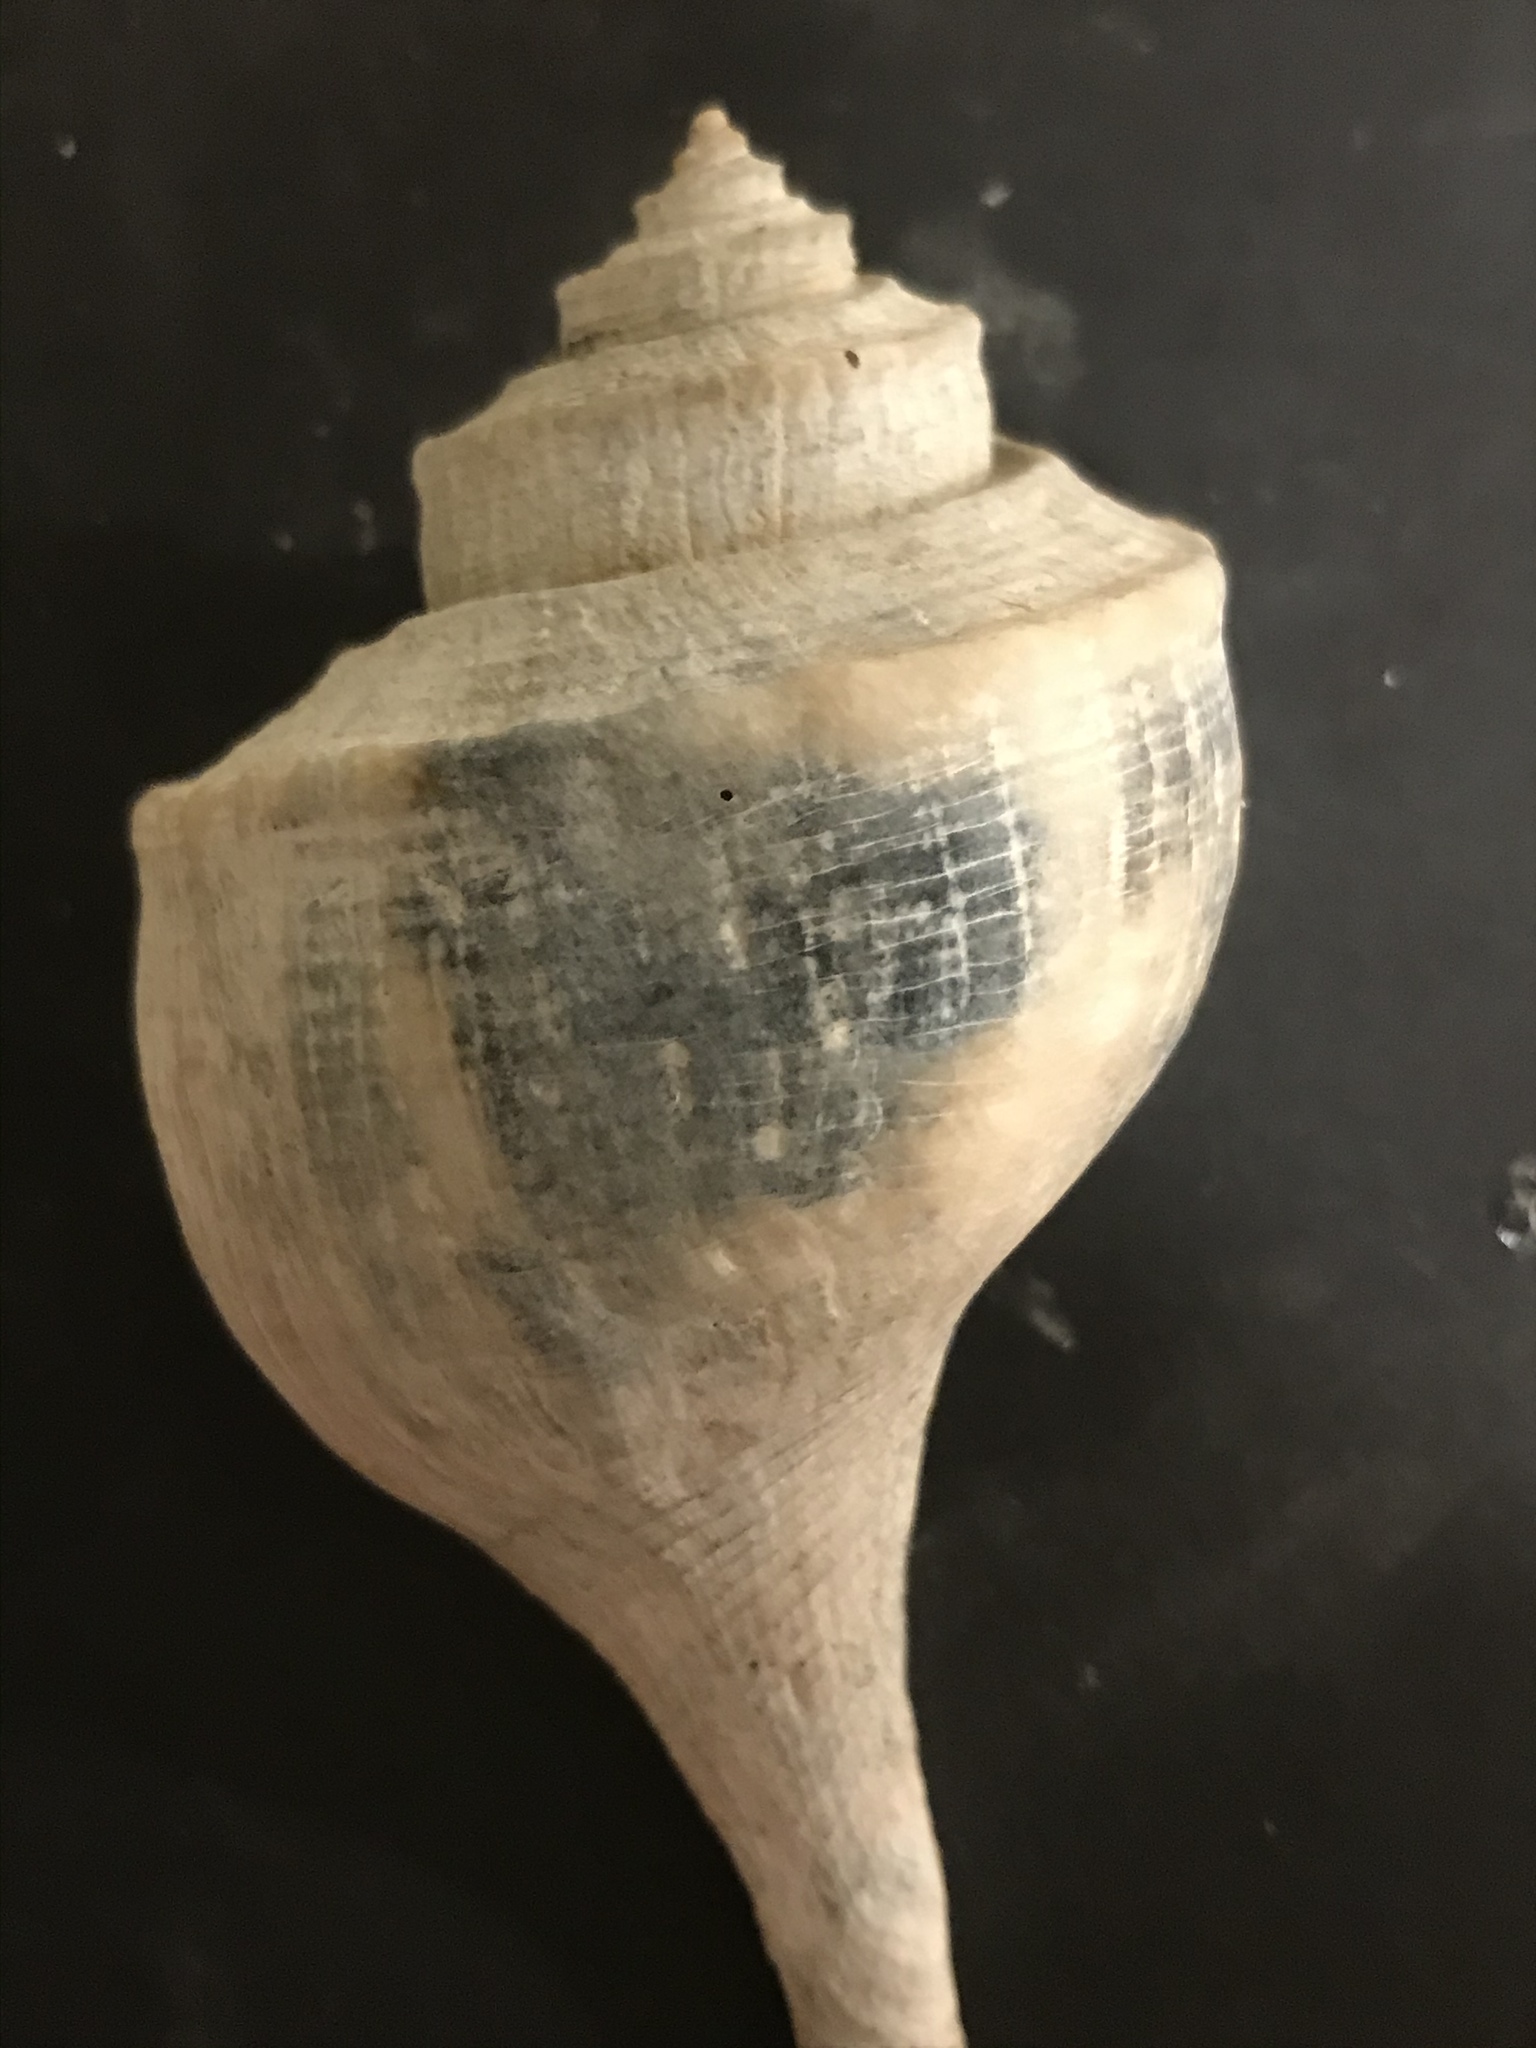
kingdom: Animalia
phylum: Mollusca
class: Gastropoda
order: Neogastropoda
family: Busyconidae
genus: Busycotypus
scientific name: Busycotypus canaliculatus
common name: Channeled whelk
